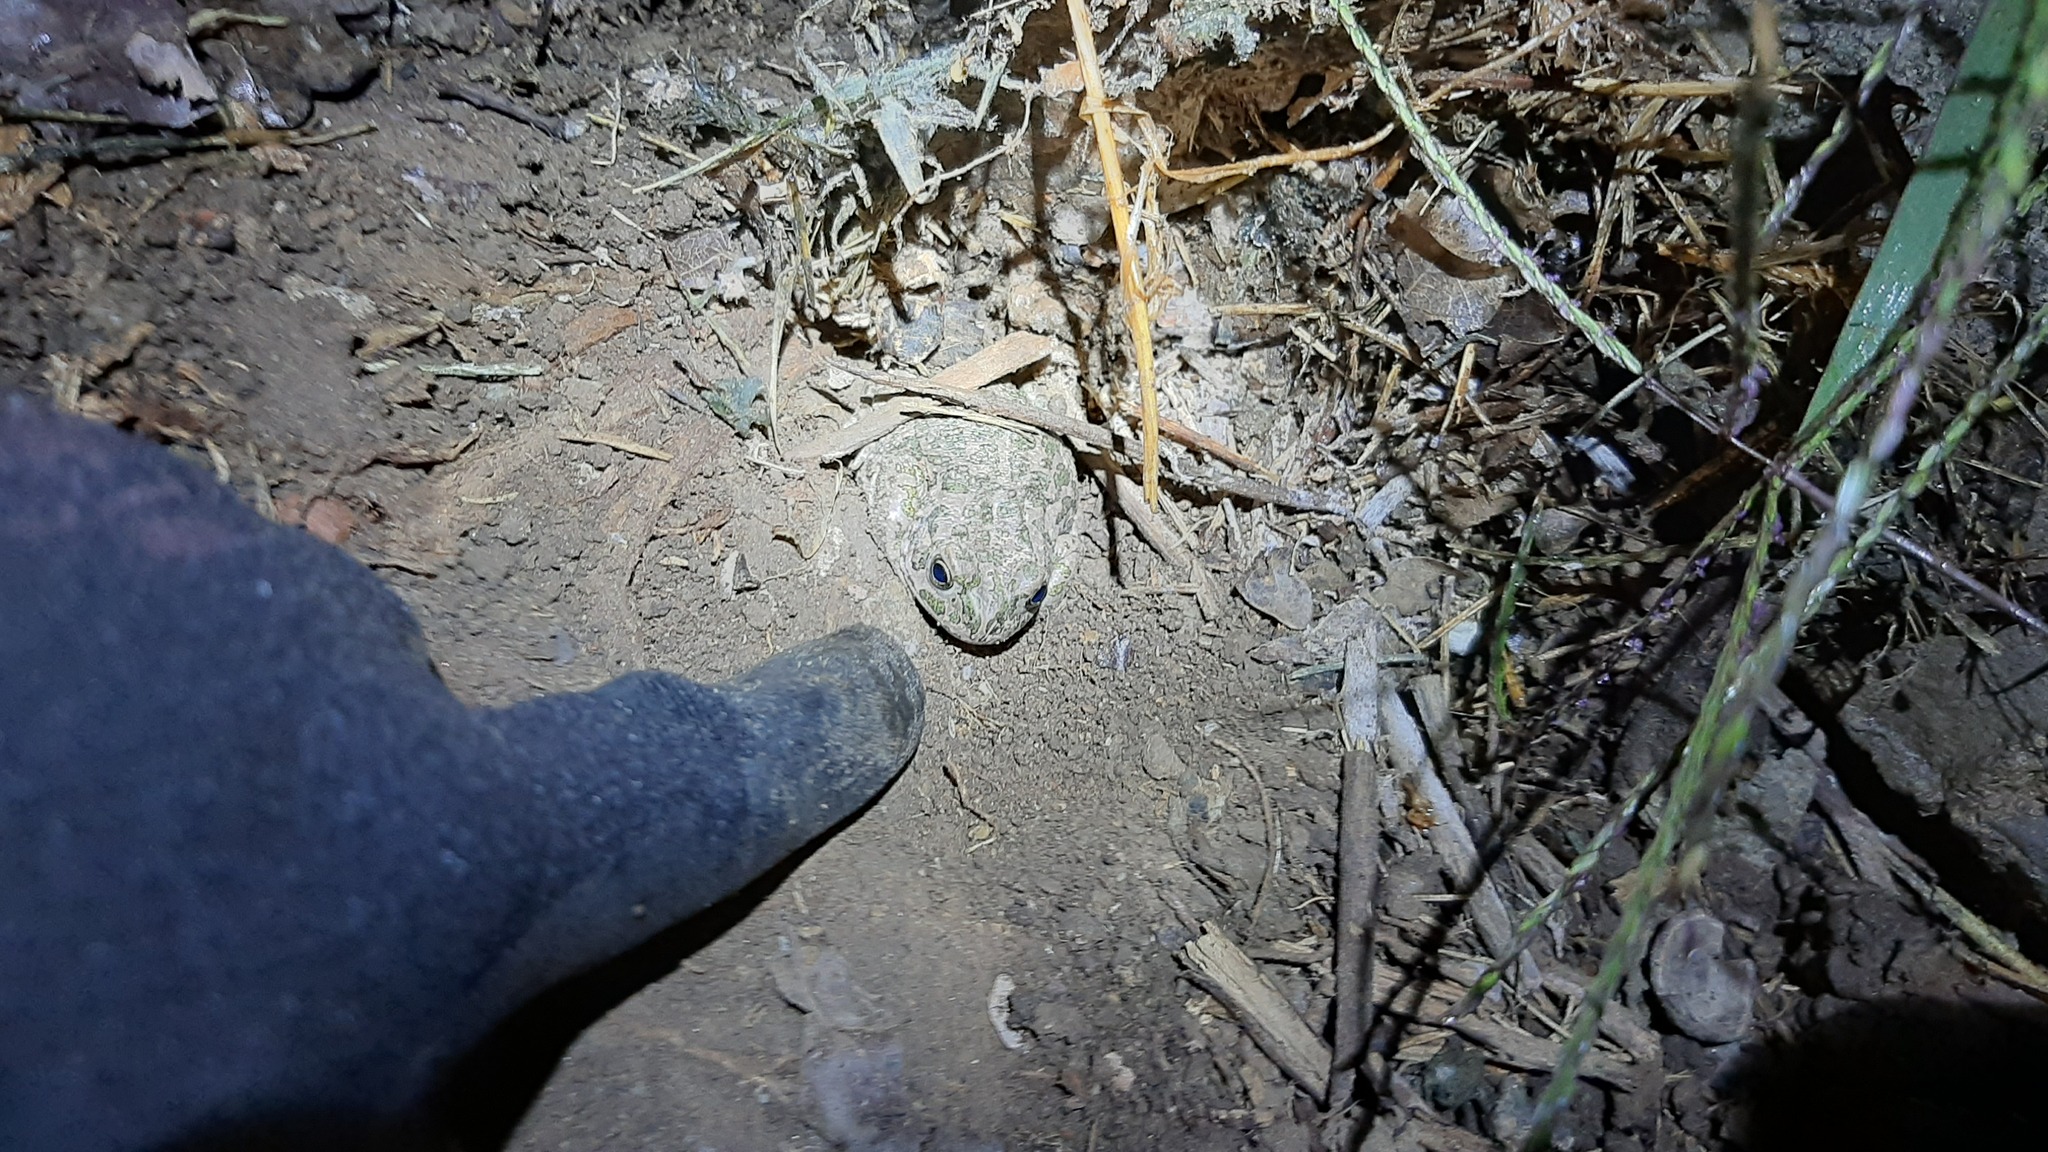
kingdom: Animalia
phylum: Chordata
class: Amphibia
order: Anura
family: Bufonidae
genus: Bufotes
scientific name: Bufotes viridis
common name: European green toad
